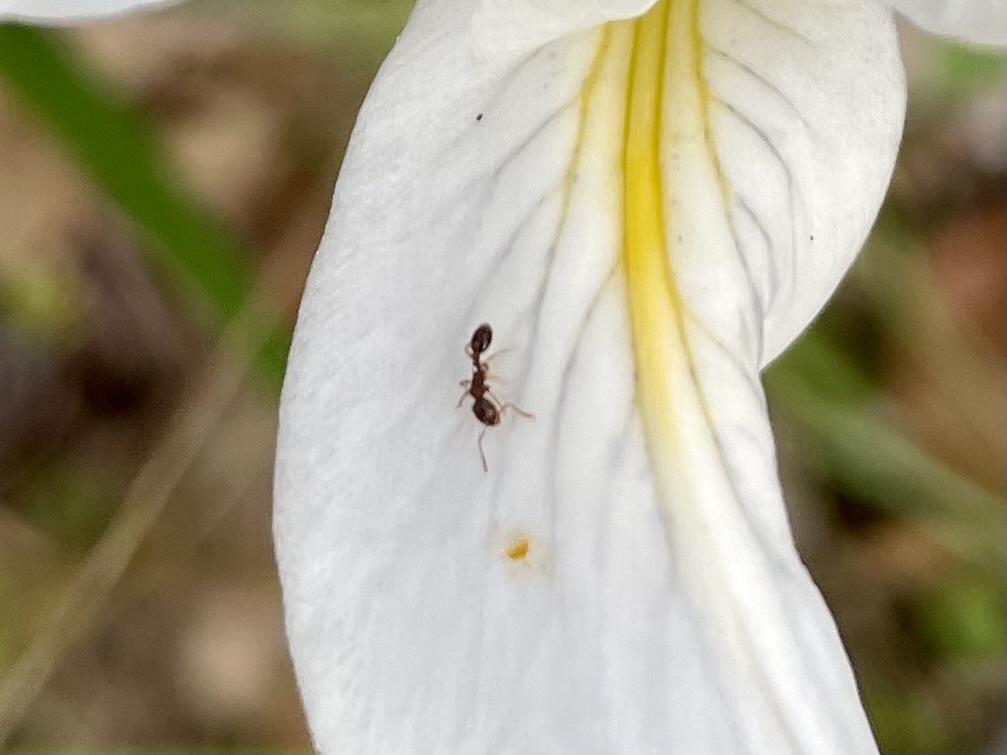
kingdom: Animalia
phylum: Arthropoda
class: Insecta
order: Hymenoptera
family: Formicidae
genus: Prenolepis
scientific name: Prenolepis imparis
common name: Small honey ant
